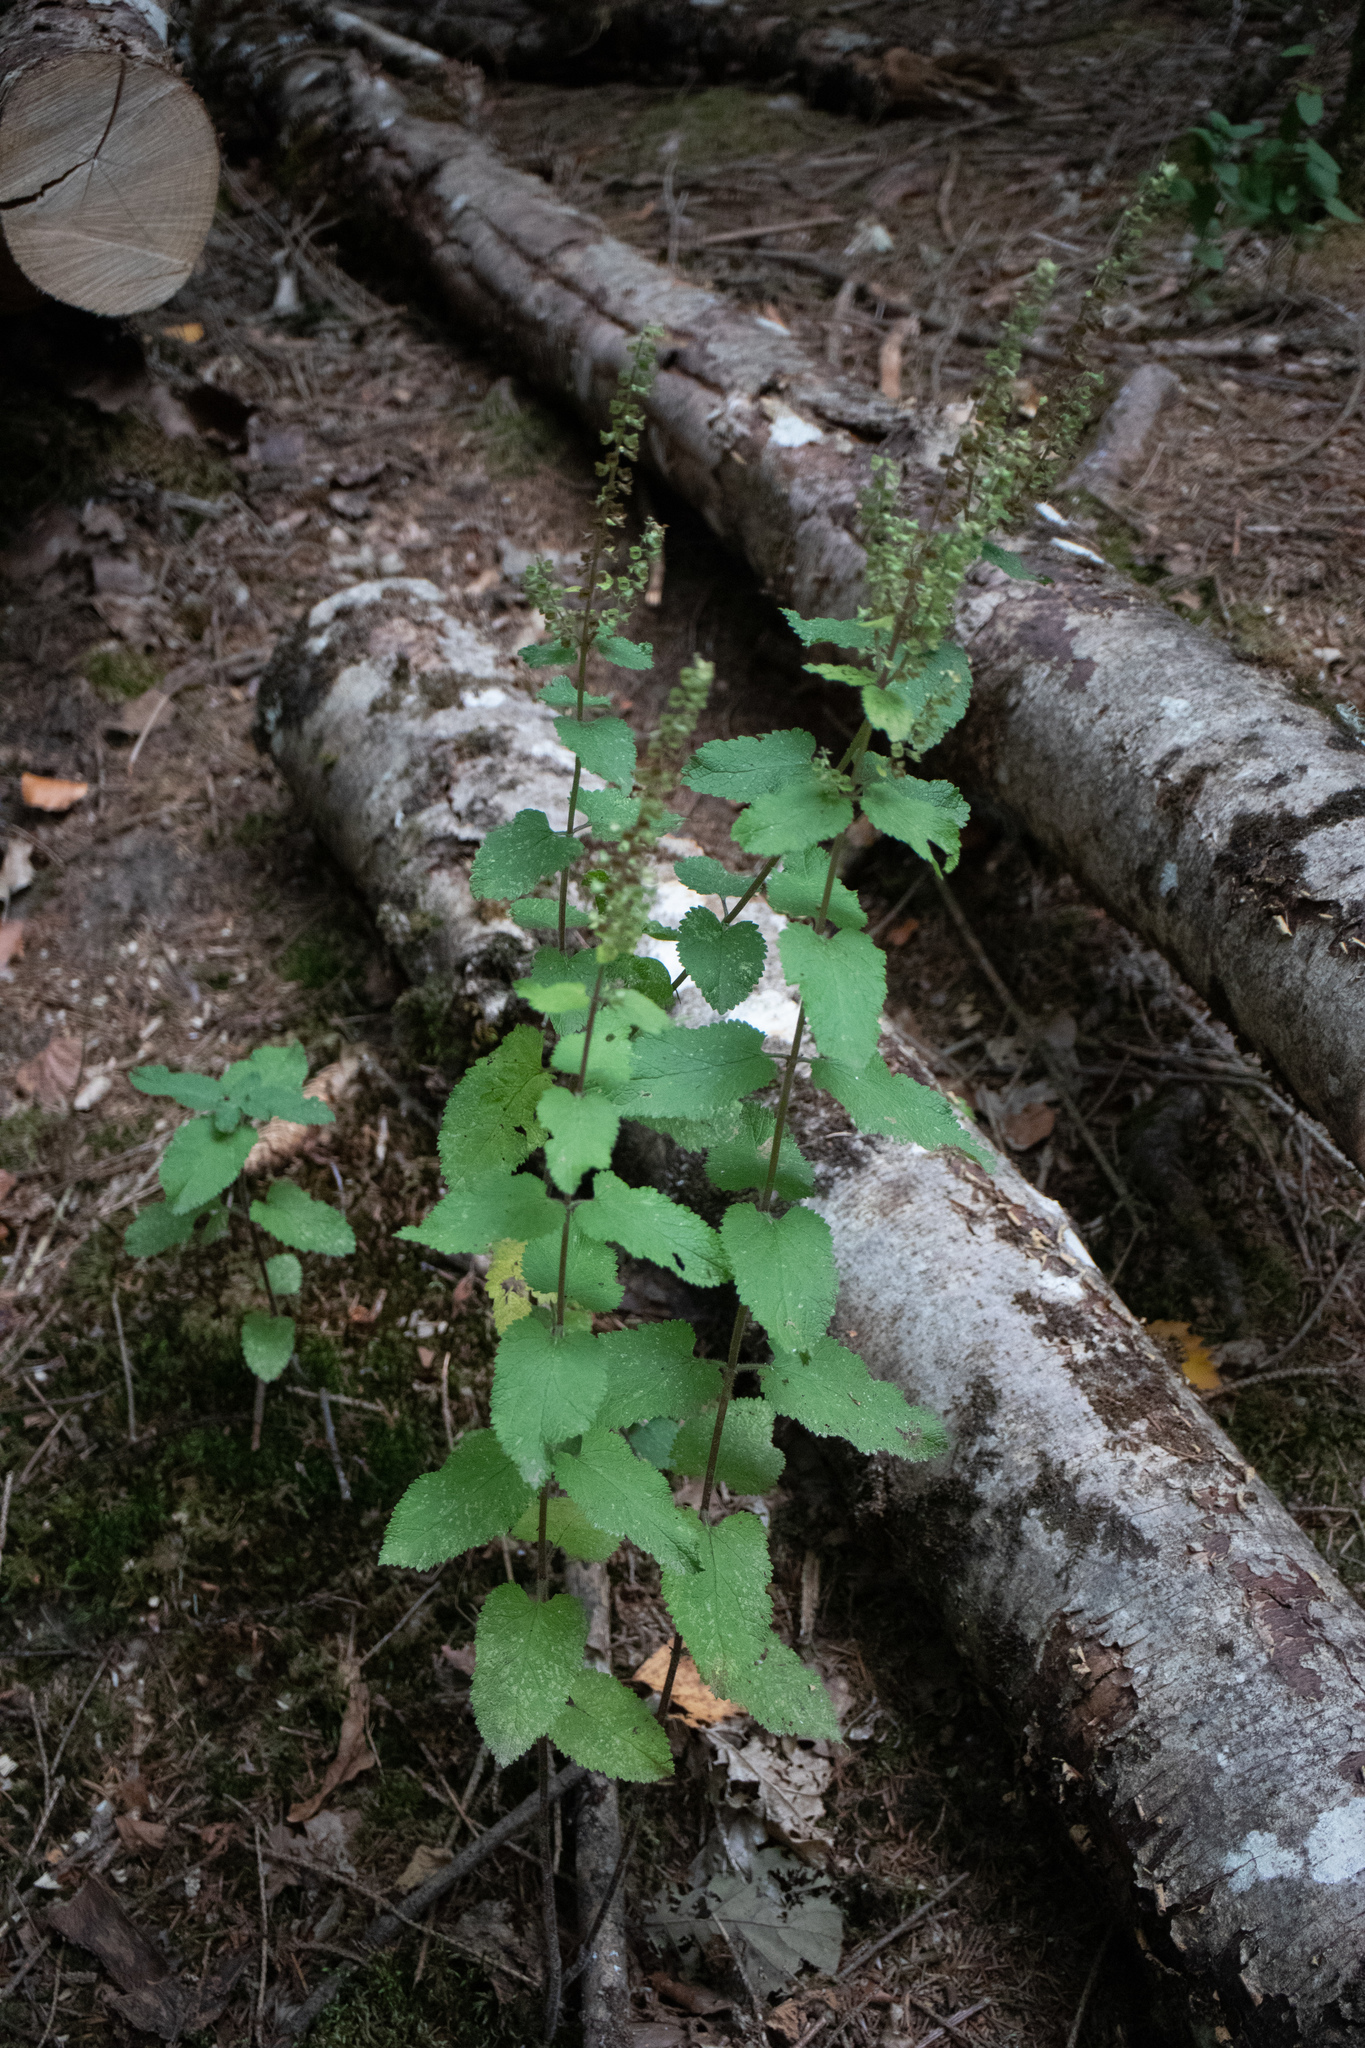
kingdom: Plantae
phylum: Tracheophyta
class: Magnoliopsida
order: Lamiales
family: Lamiaceae
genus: Teucrium
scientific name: Teucrium scorodonia
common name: Woodland germander
